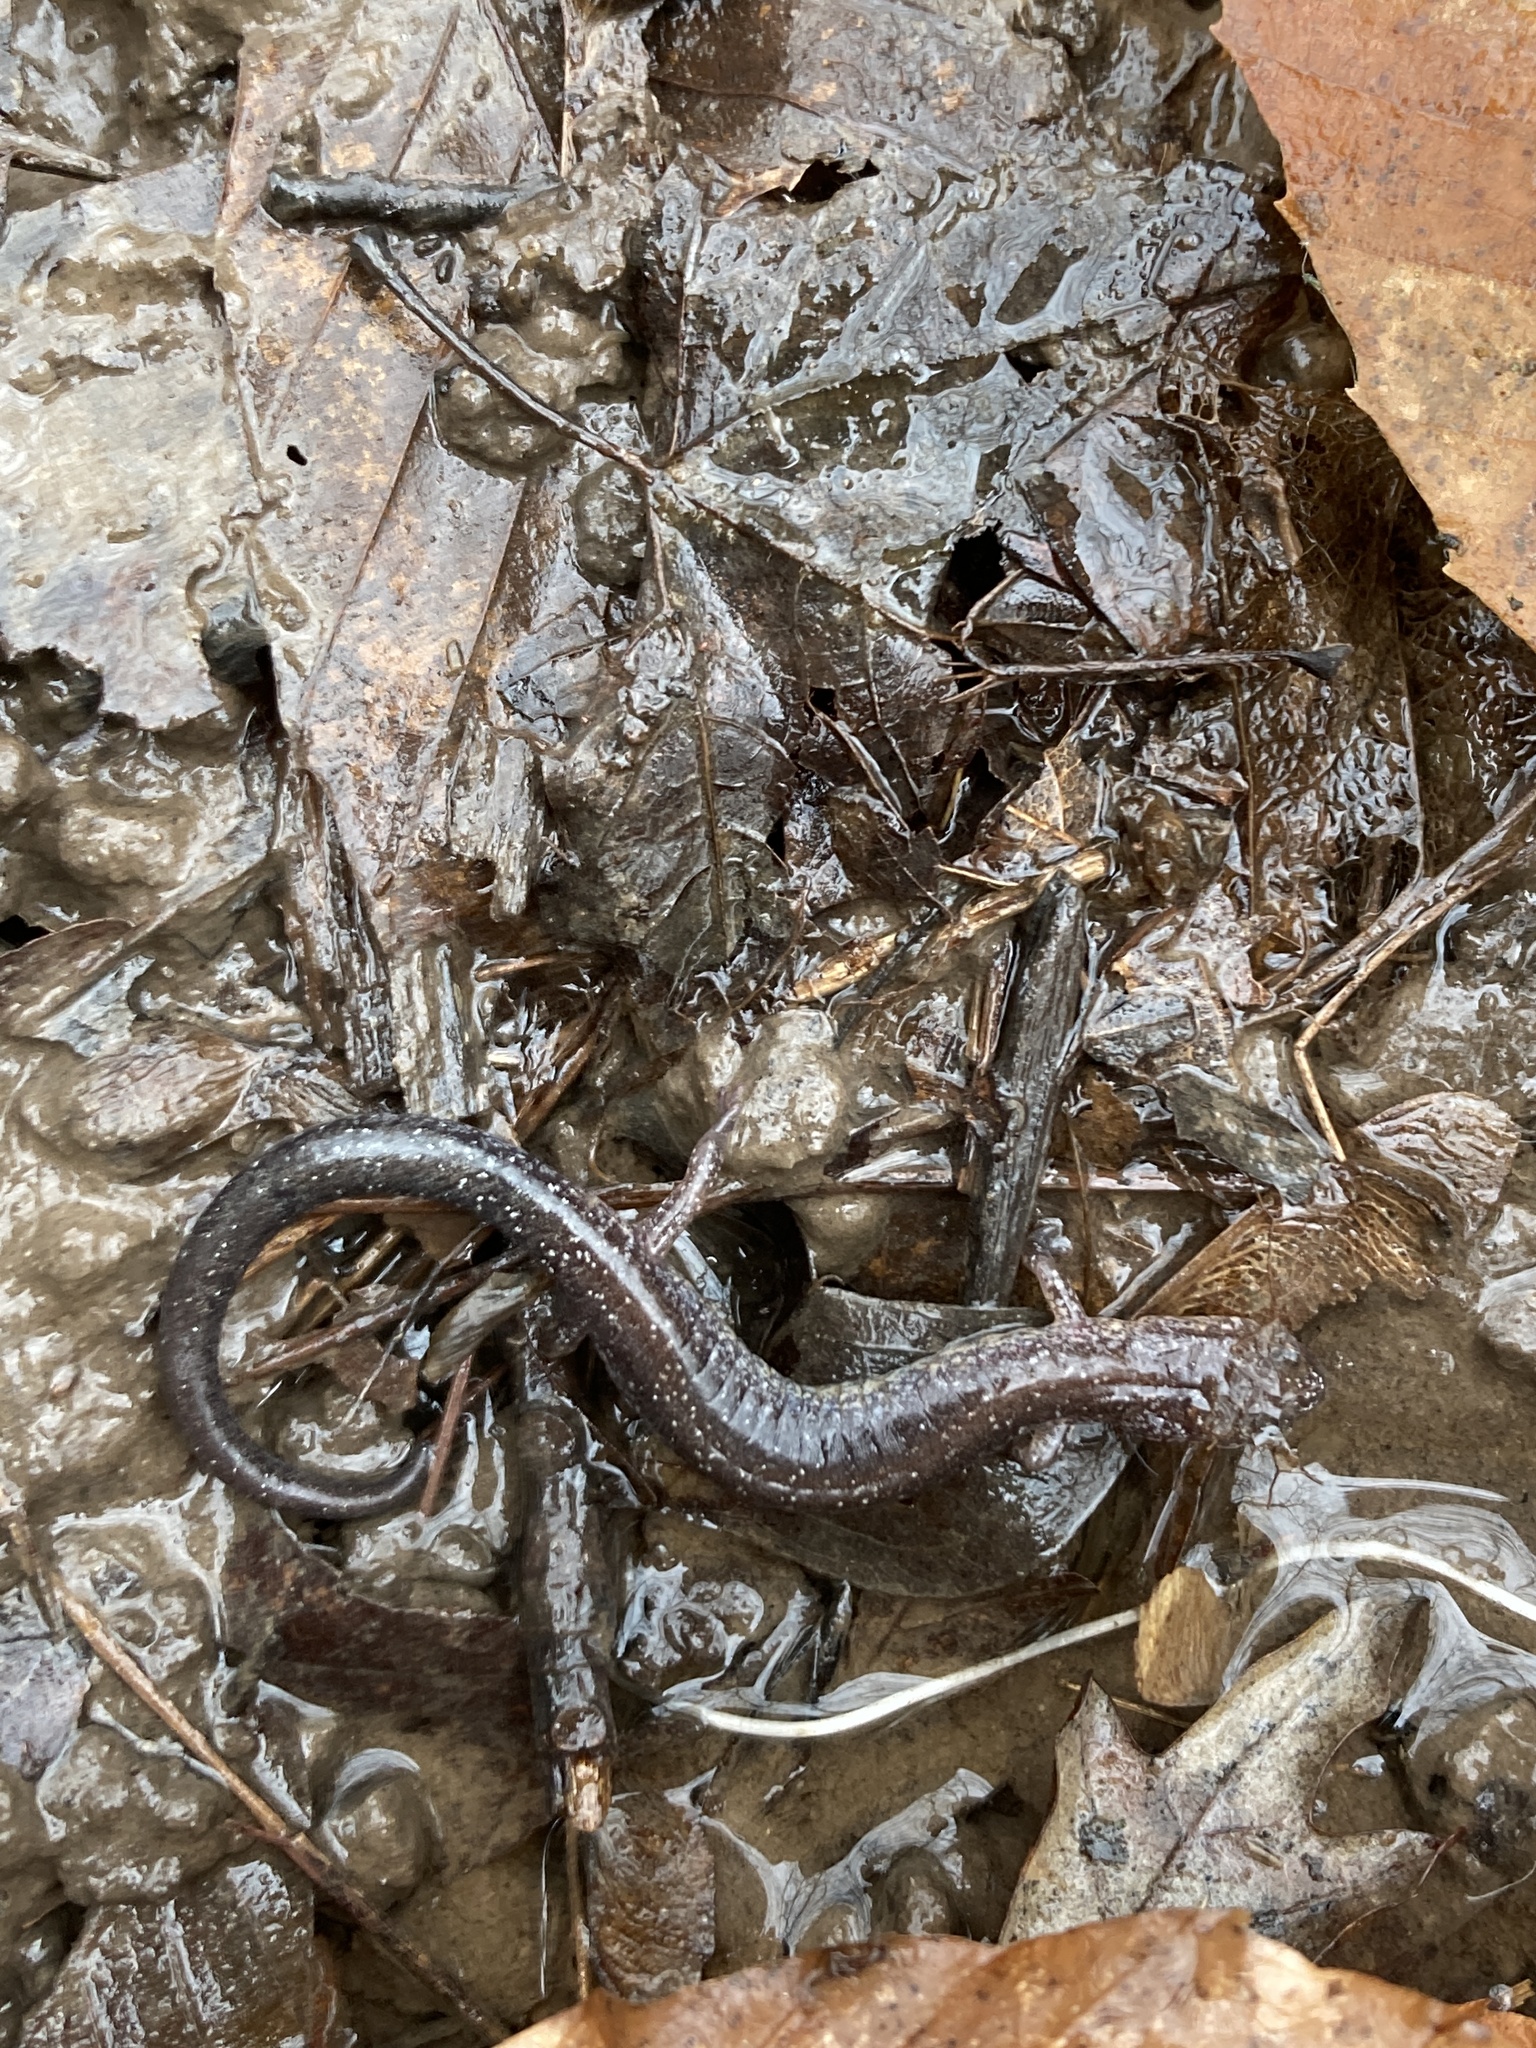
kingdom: Animalia
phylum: Chordata
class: Amphibia
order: Caudata
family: Plethodontidae
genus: Plethodon
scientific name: Plethodon cinereus
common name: Redback salamander
